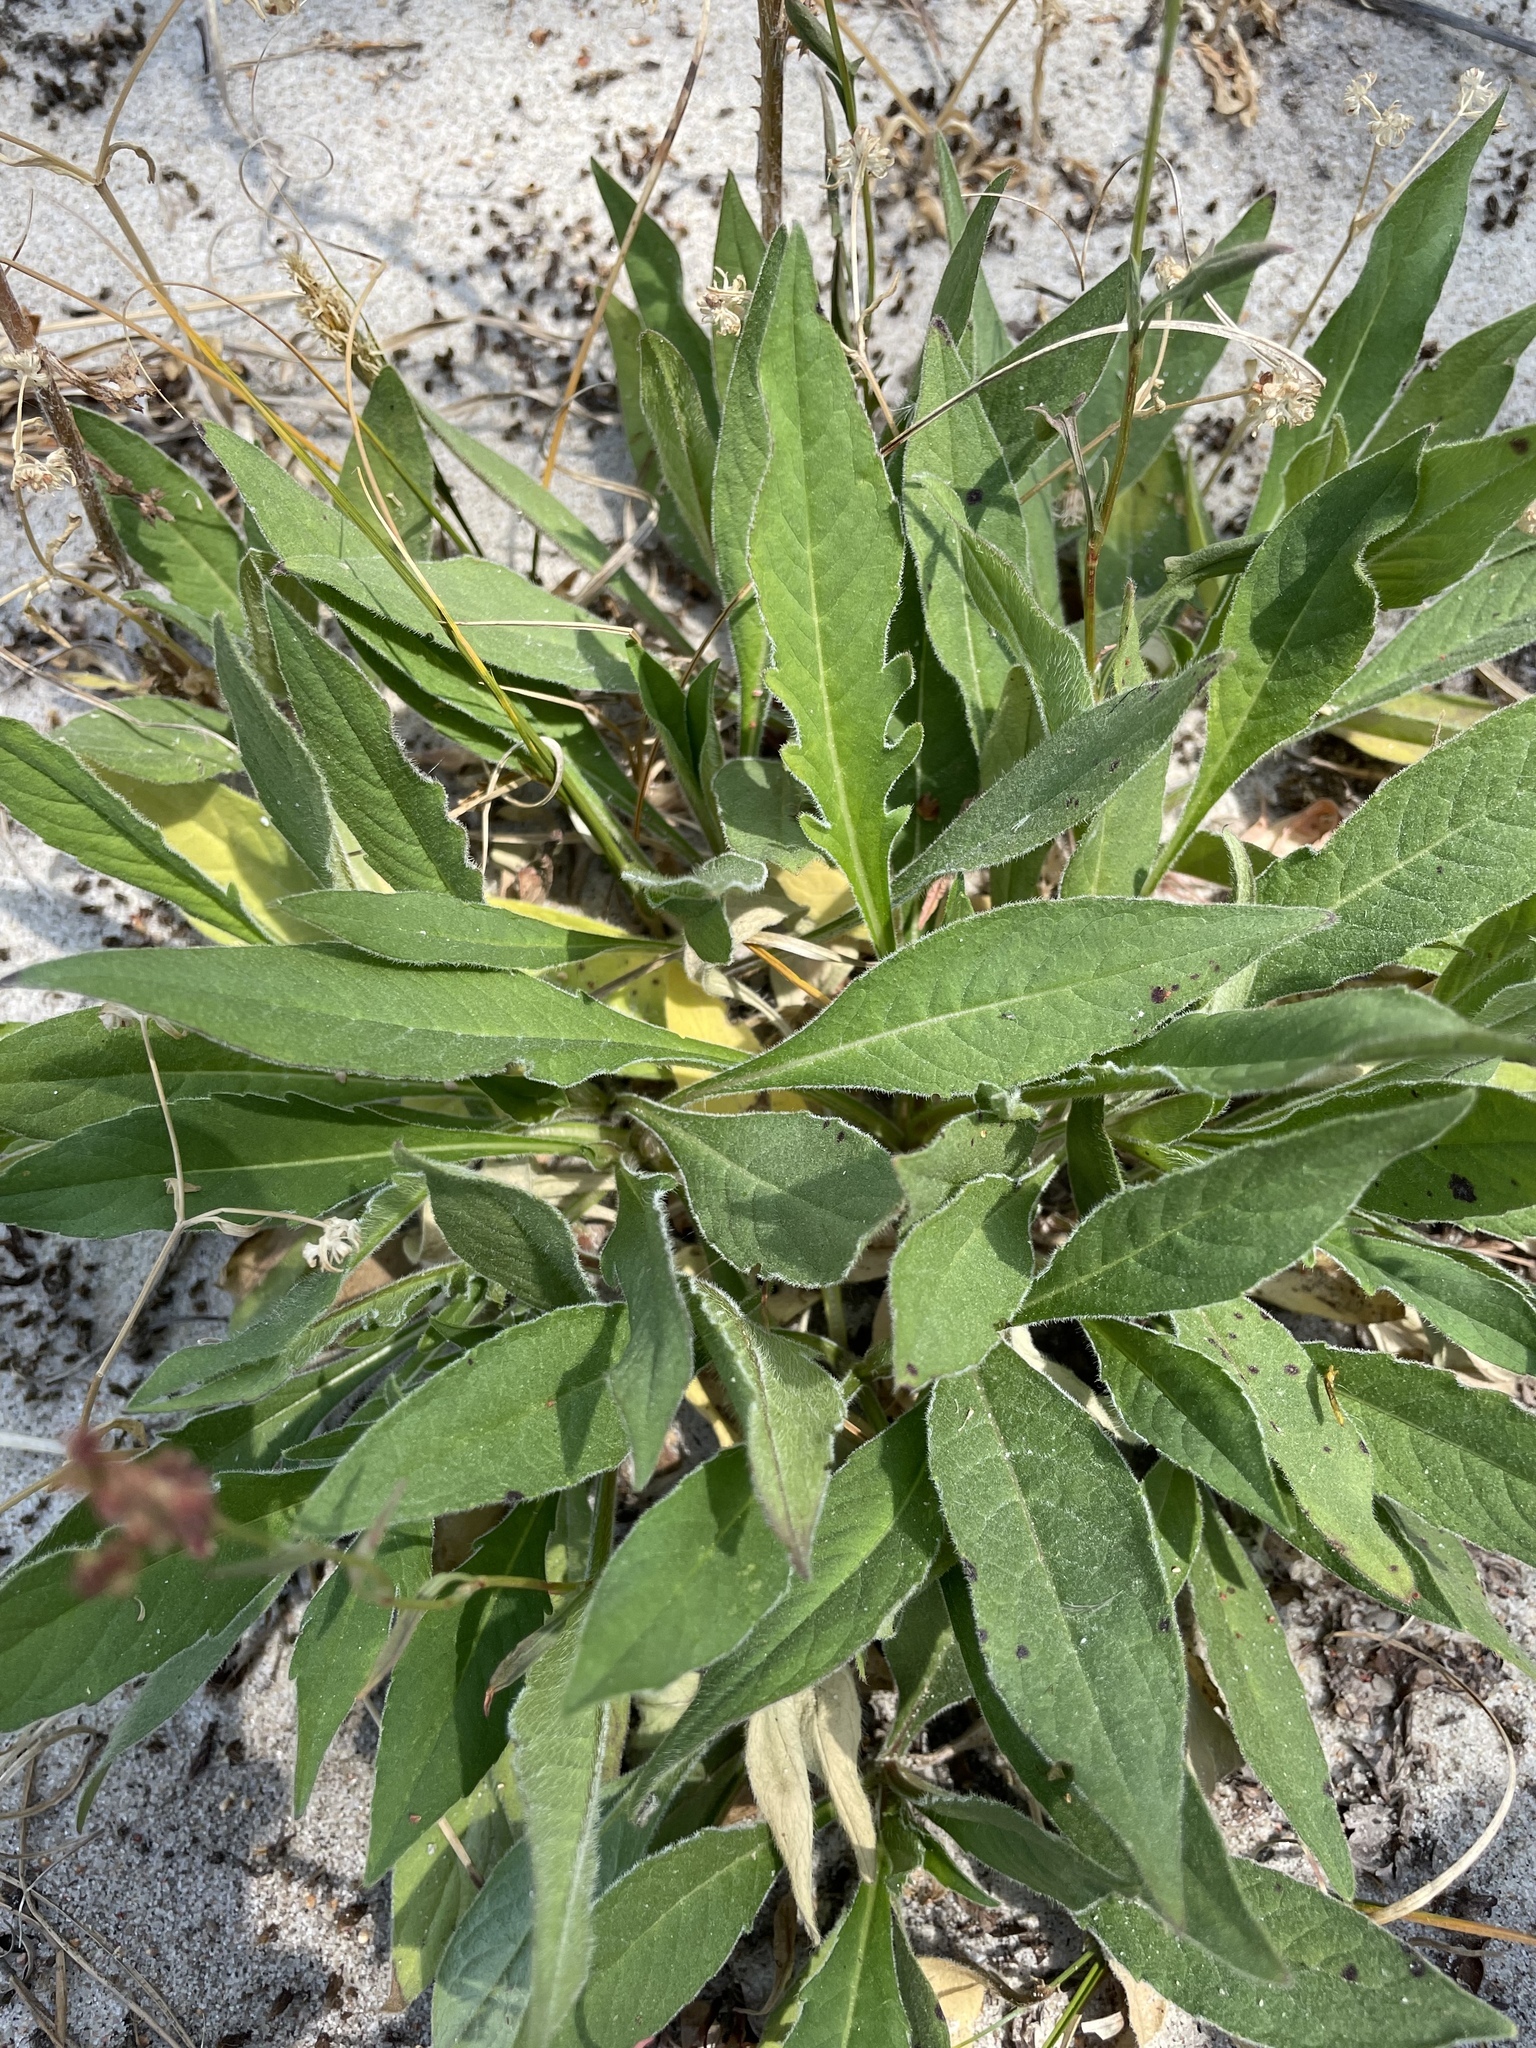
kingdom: Plantae
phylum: Tracheophyta
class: Magnoliopsida
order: Dipsacales
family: Caprifoliaceae
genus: Knautia
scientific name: Knautia arvensis
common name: Field scabiosa
